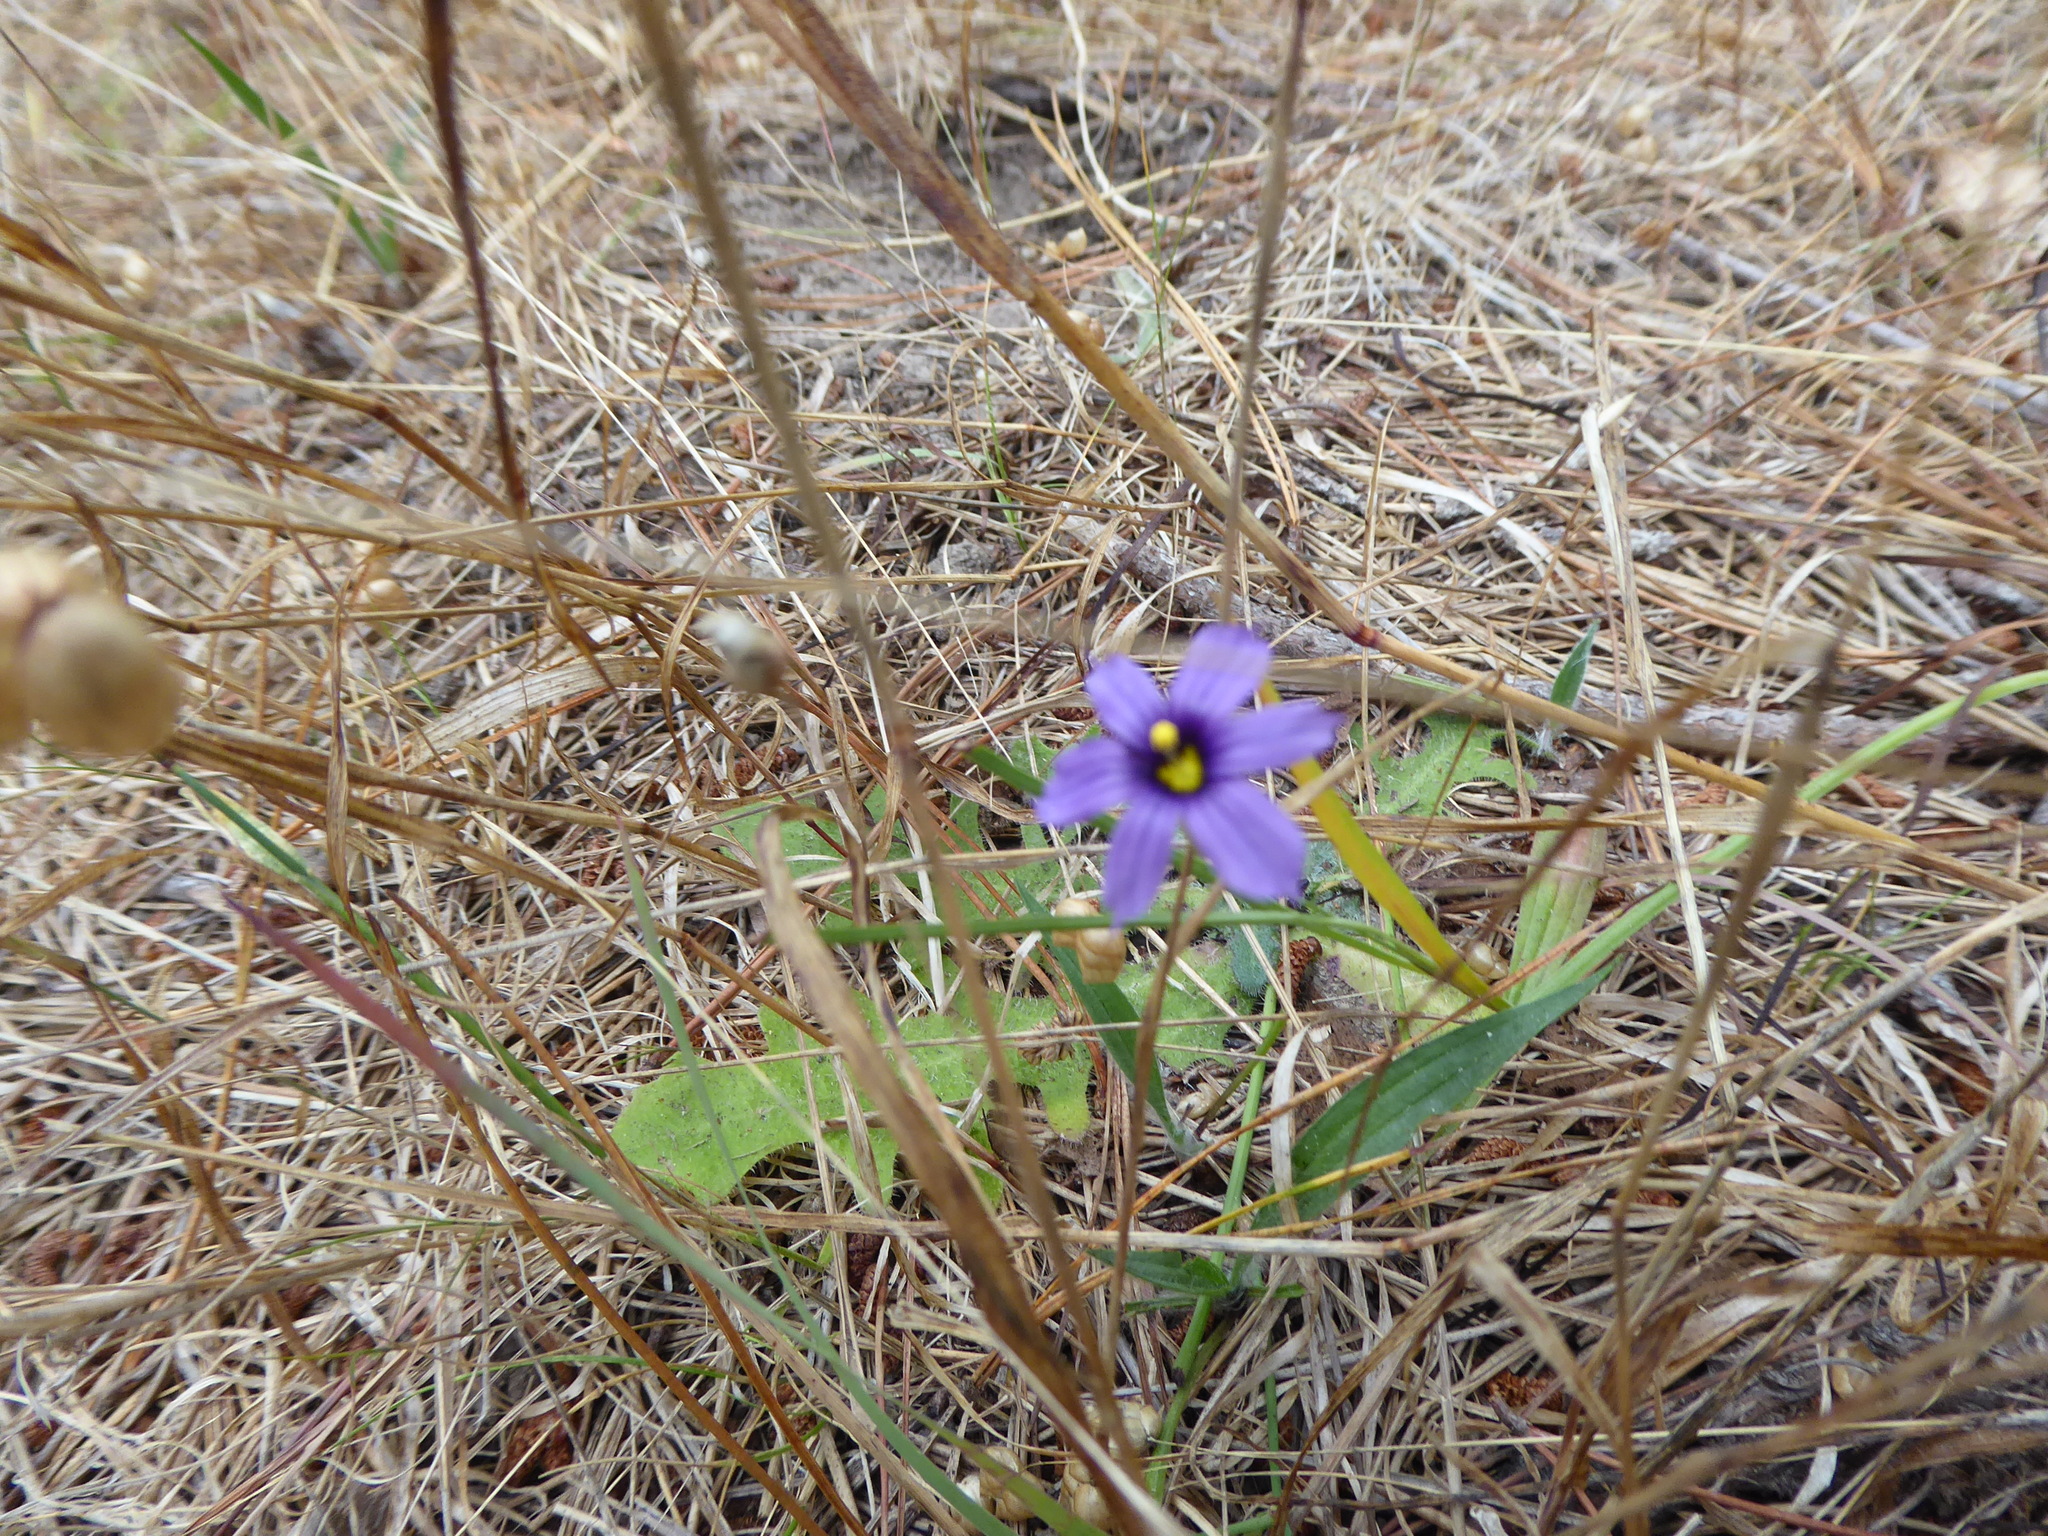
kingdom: Plantae
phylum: Tracheophyta
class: Liliopsida
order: Asparagales
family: Iridaceae
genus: Sisyrinchium
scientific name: Sisyrinchium bellum
